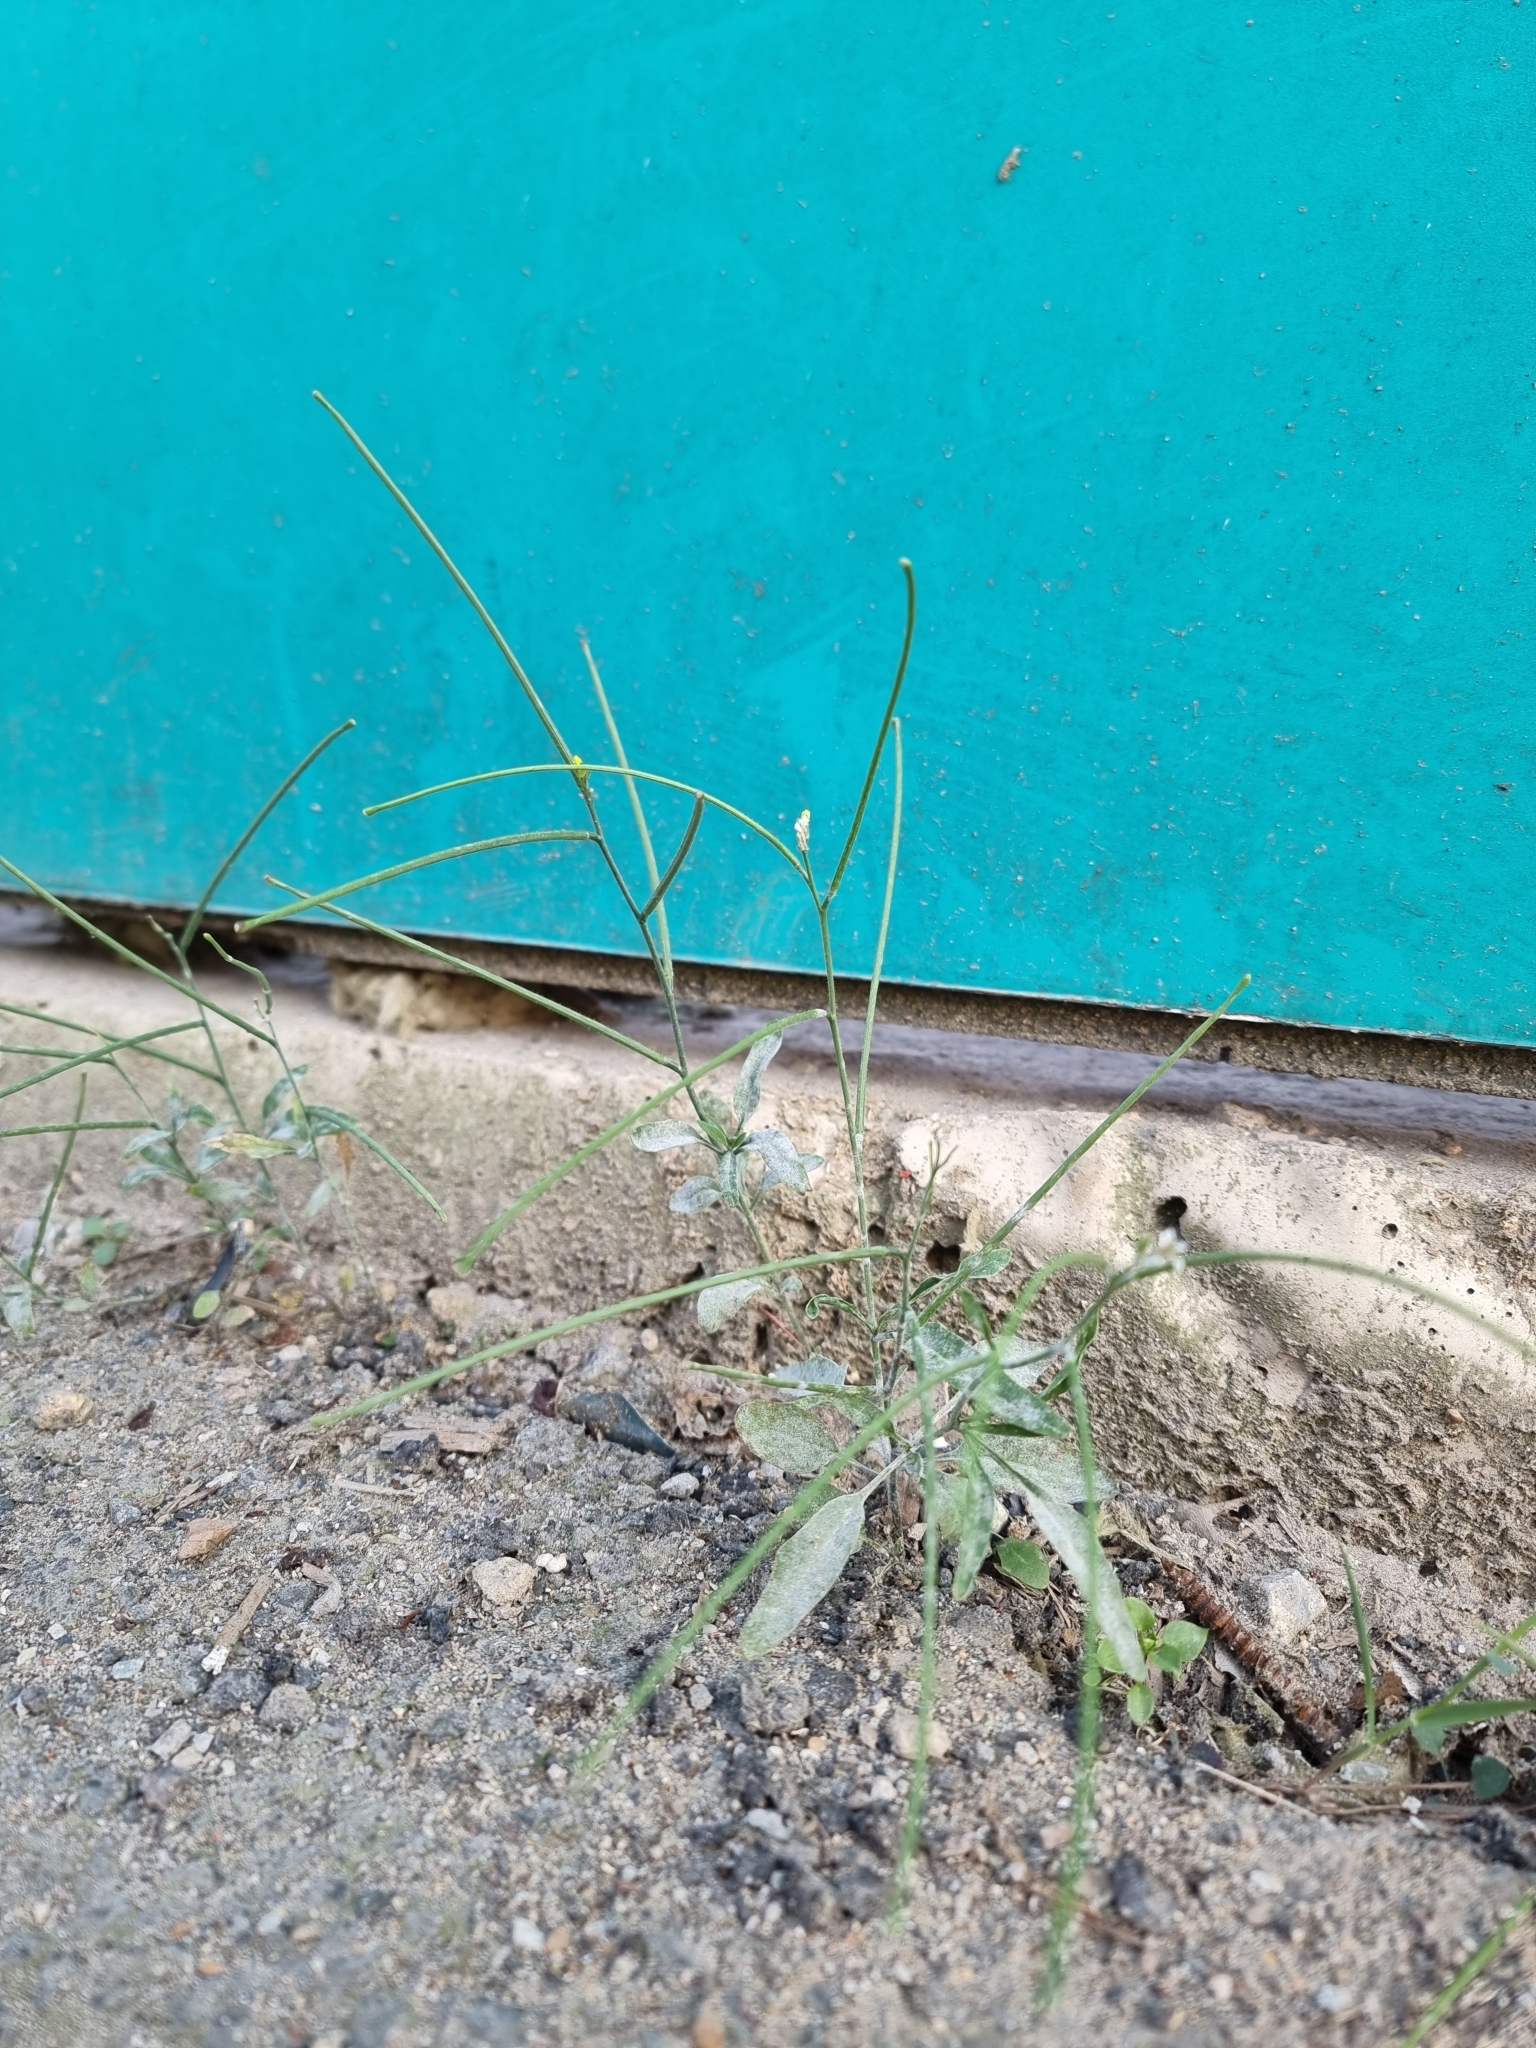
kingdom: Plantae
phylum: Tracheophyta
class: Magnoliopsida
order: Brassicales
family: Brassicaceae
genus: Sisymbrium
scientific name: Sisymbrium orientale
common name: Eastern rocket
